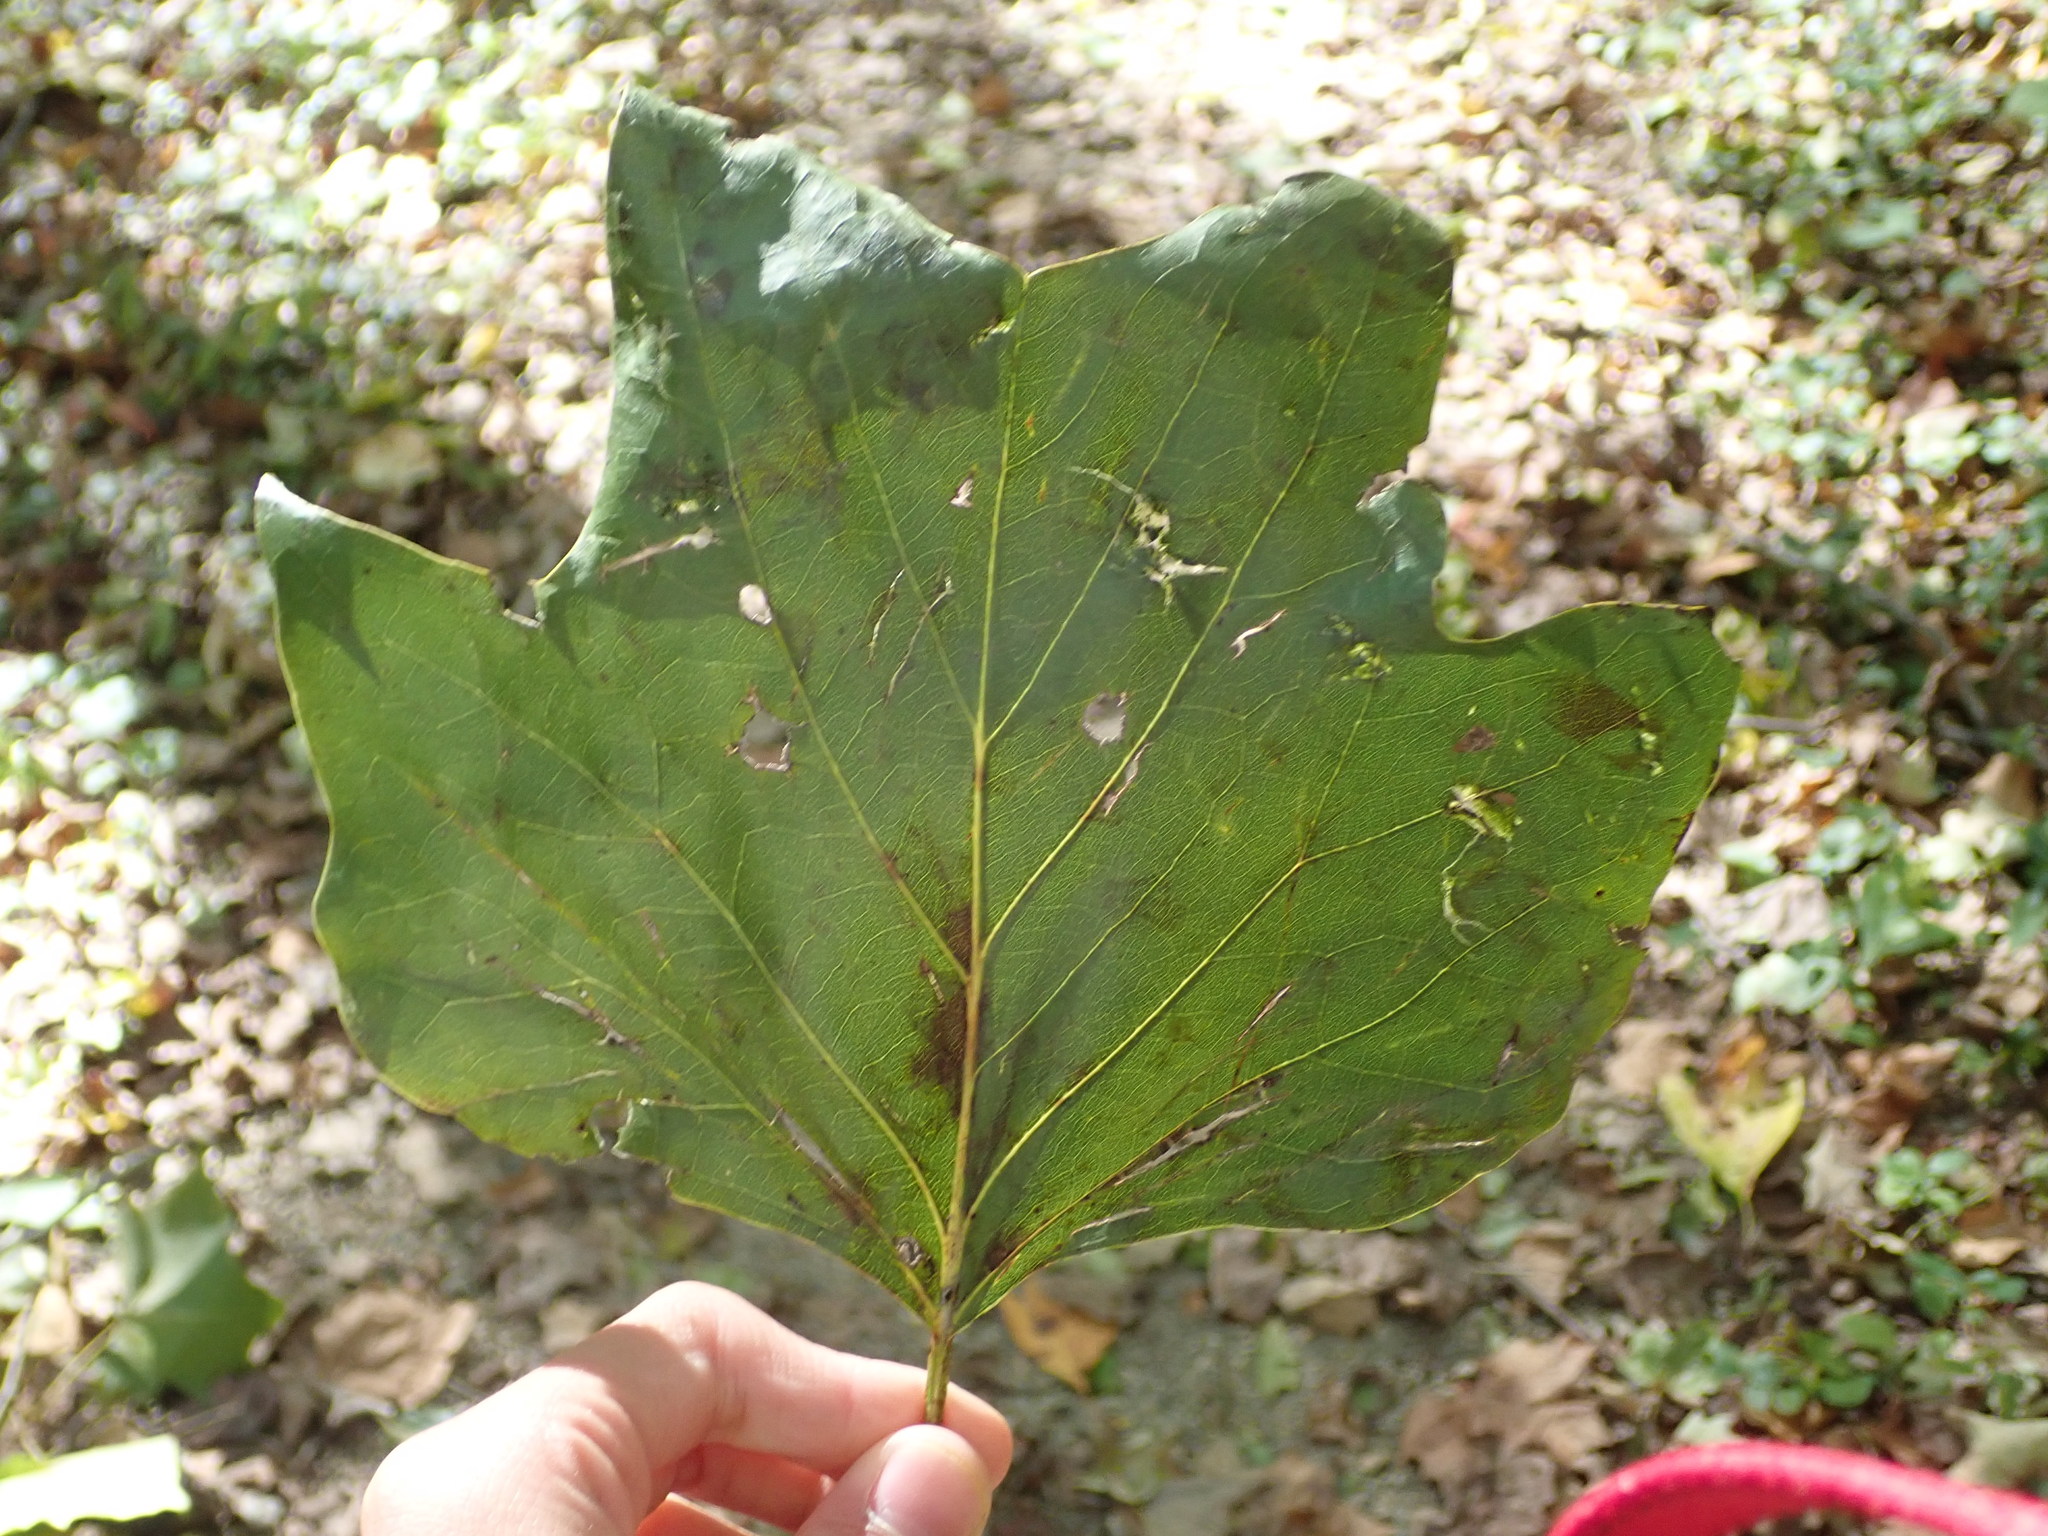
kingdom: Plantae
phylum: Tracheophyta
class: Magnoliopsida
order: Magnoliales
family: Magnoliaceae
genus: Liriodendron
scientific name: Liriodendron tulipifera
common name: Tulip tree
